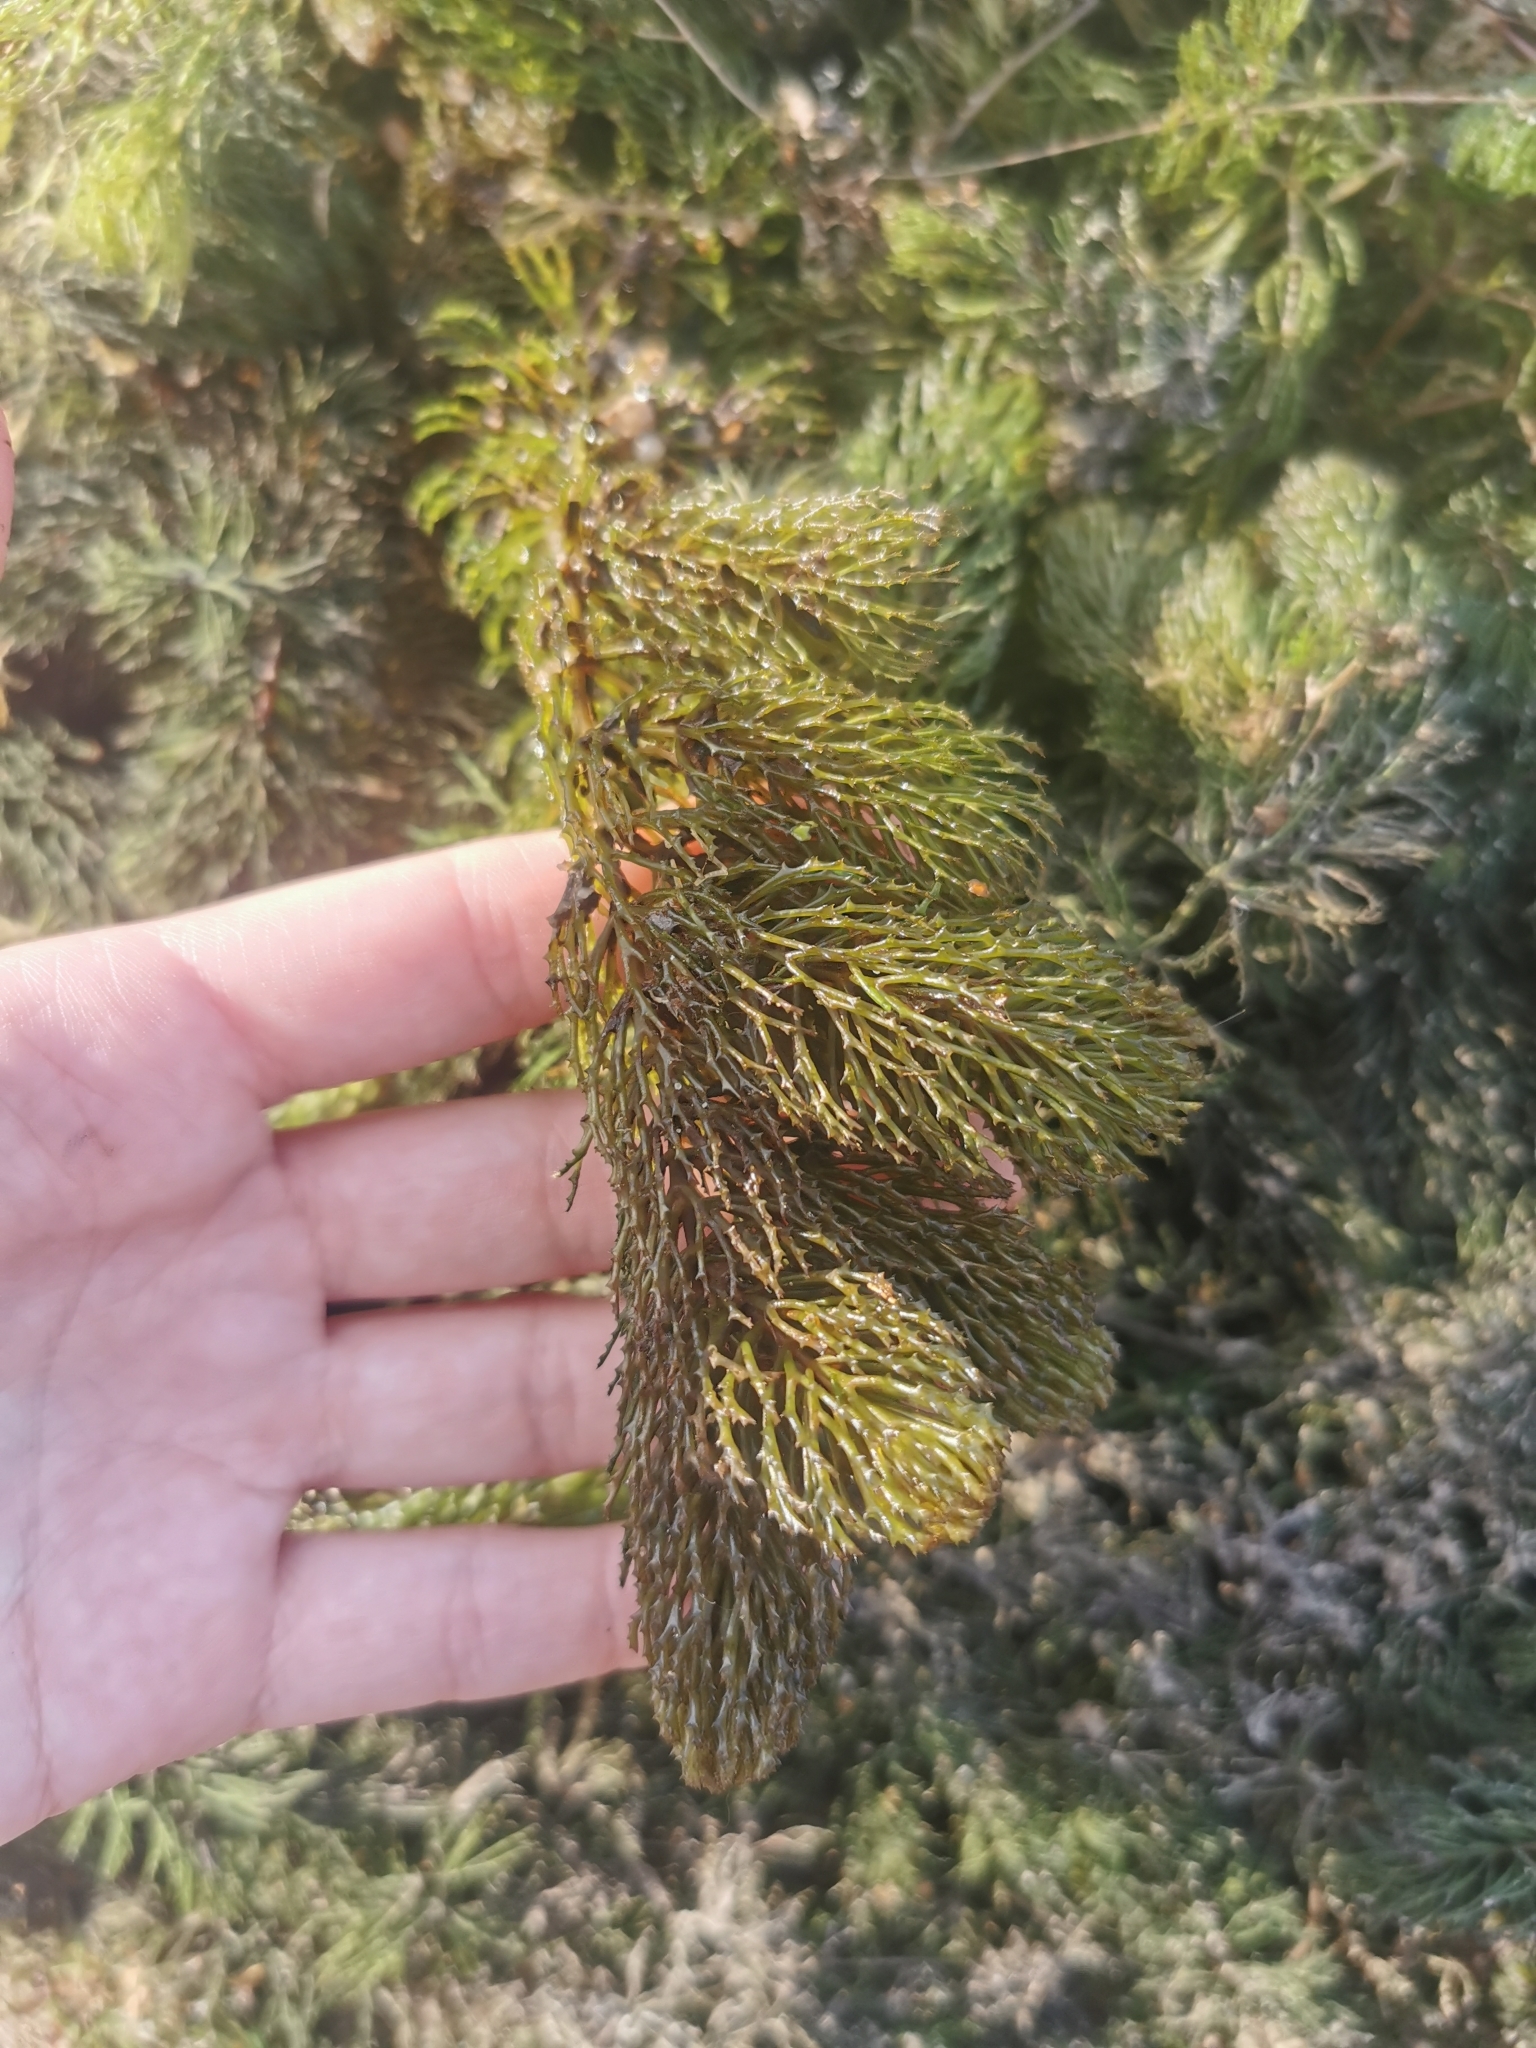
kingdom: Plantae
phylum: Tracheophyta
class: Magnoliopsida
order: Ceratophyllales
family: Ceratophyllaceae
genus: Ceratophyllum
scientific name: Ceratophyllum demersum
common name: Rigid hornwort
